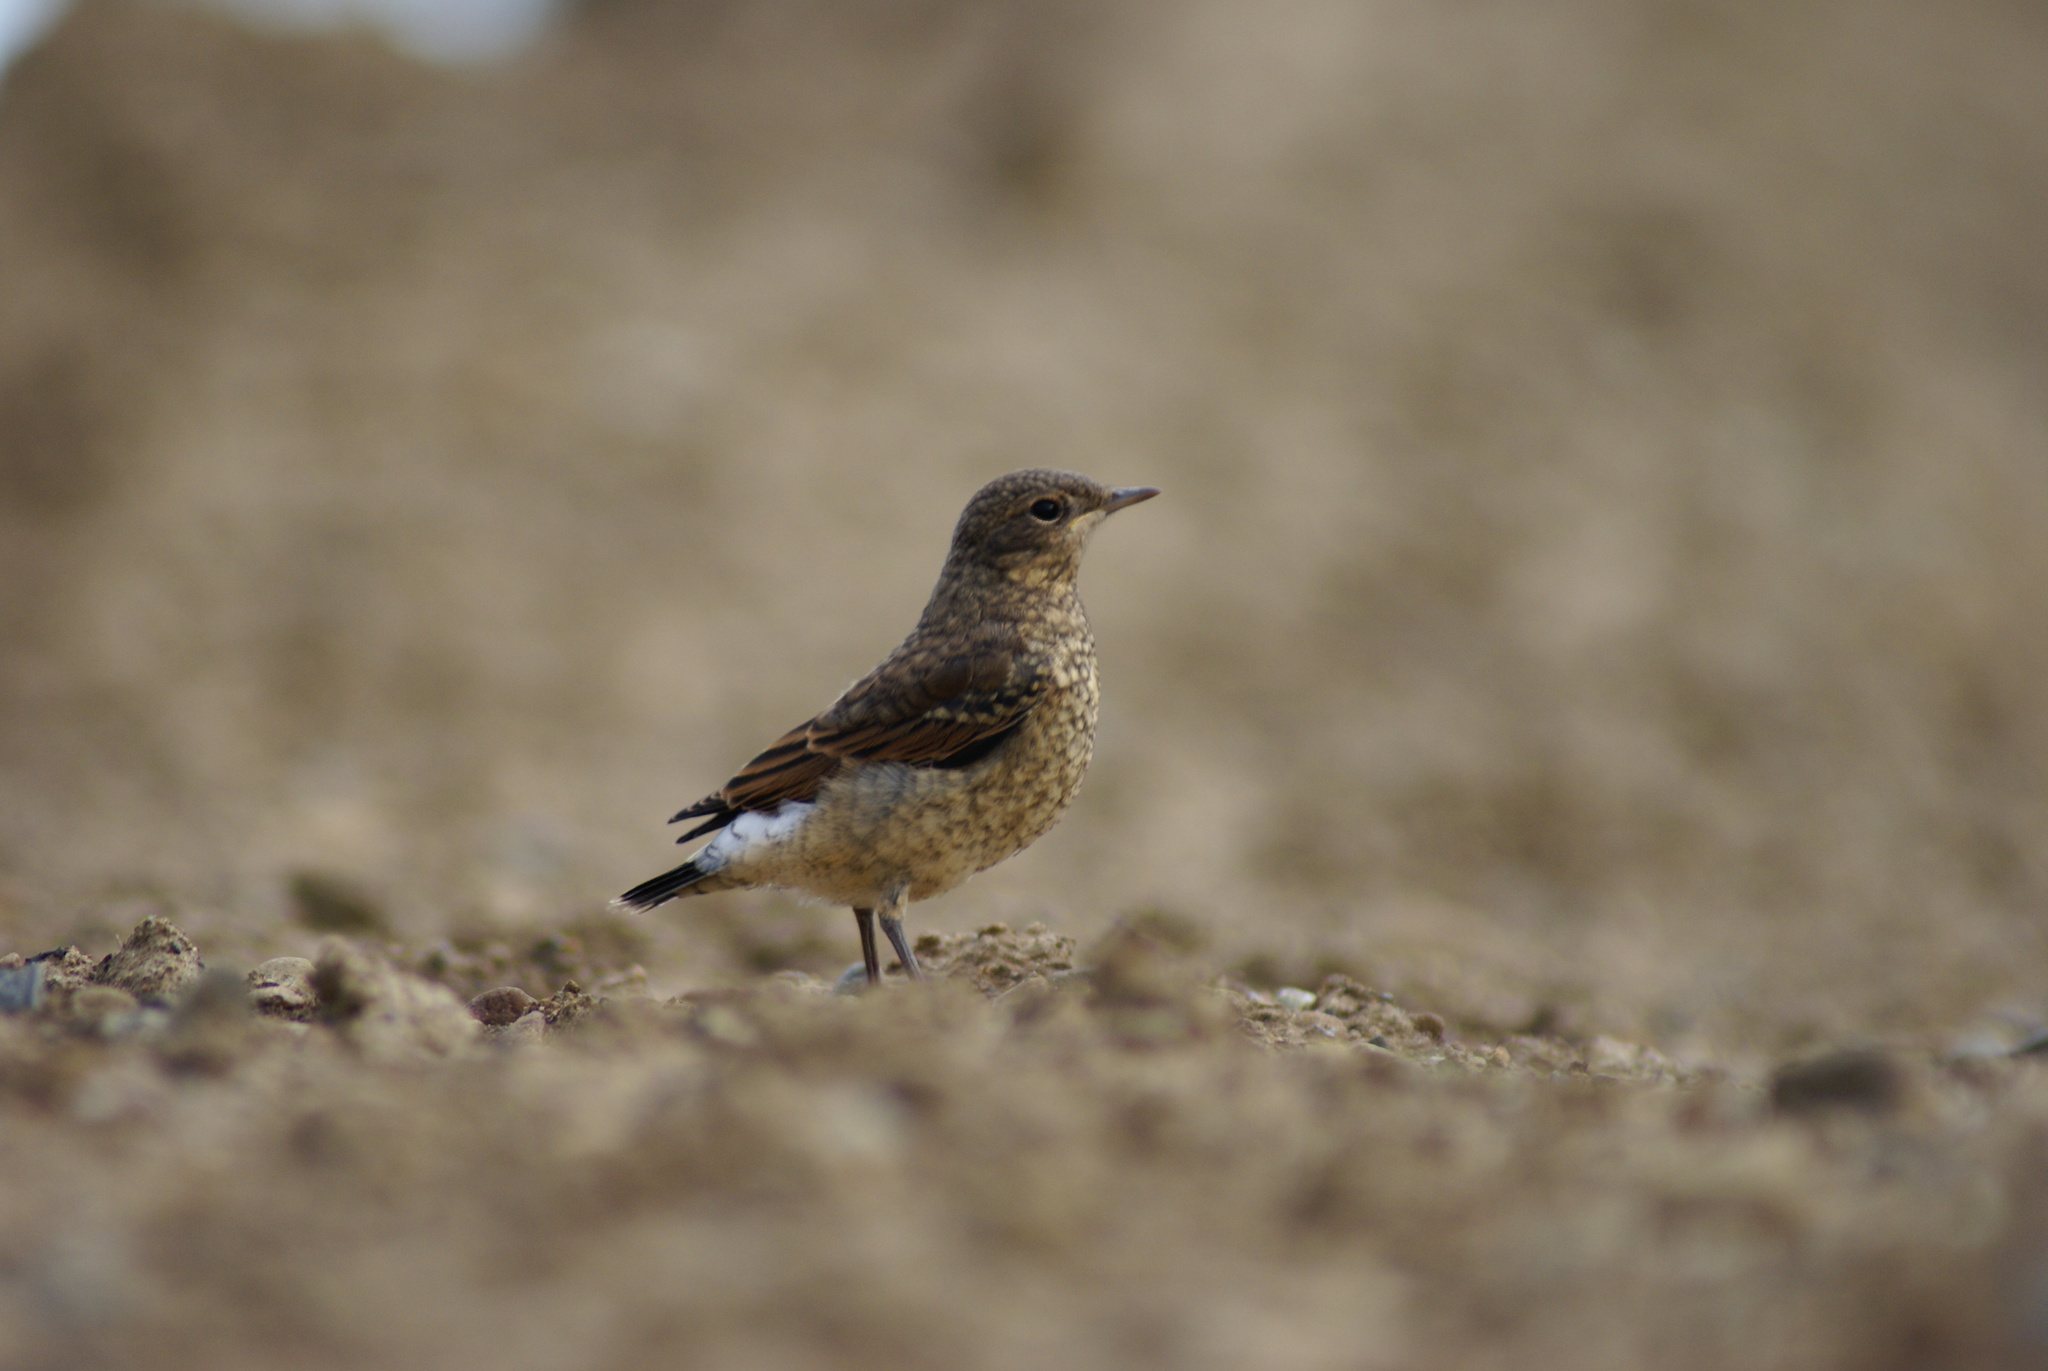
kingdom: Animalia
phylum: Chordata
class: Aves
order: Passeriformes
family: Muscicapidae
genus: Oenanthe
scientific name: Oenanthe oenanthe
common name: Northern wheatear
